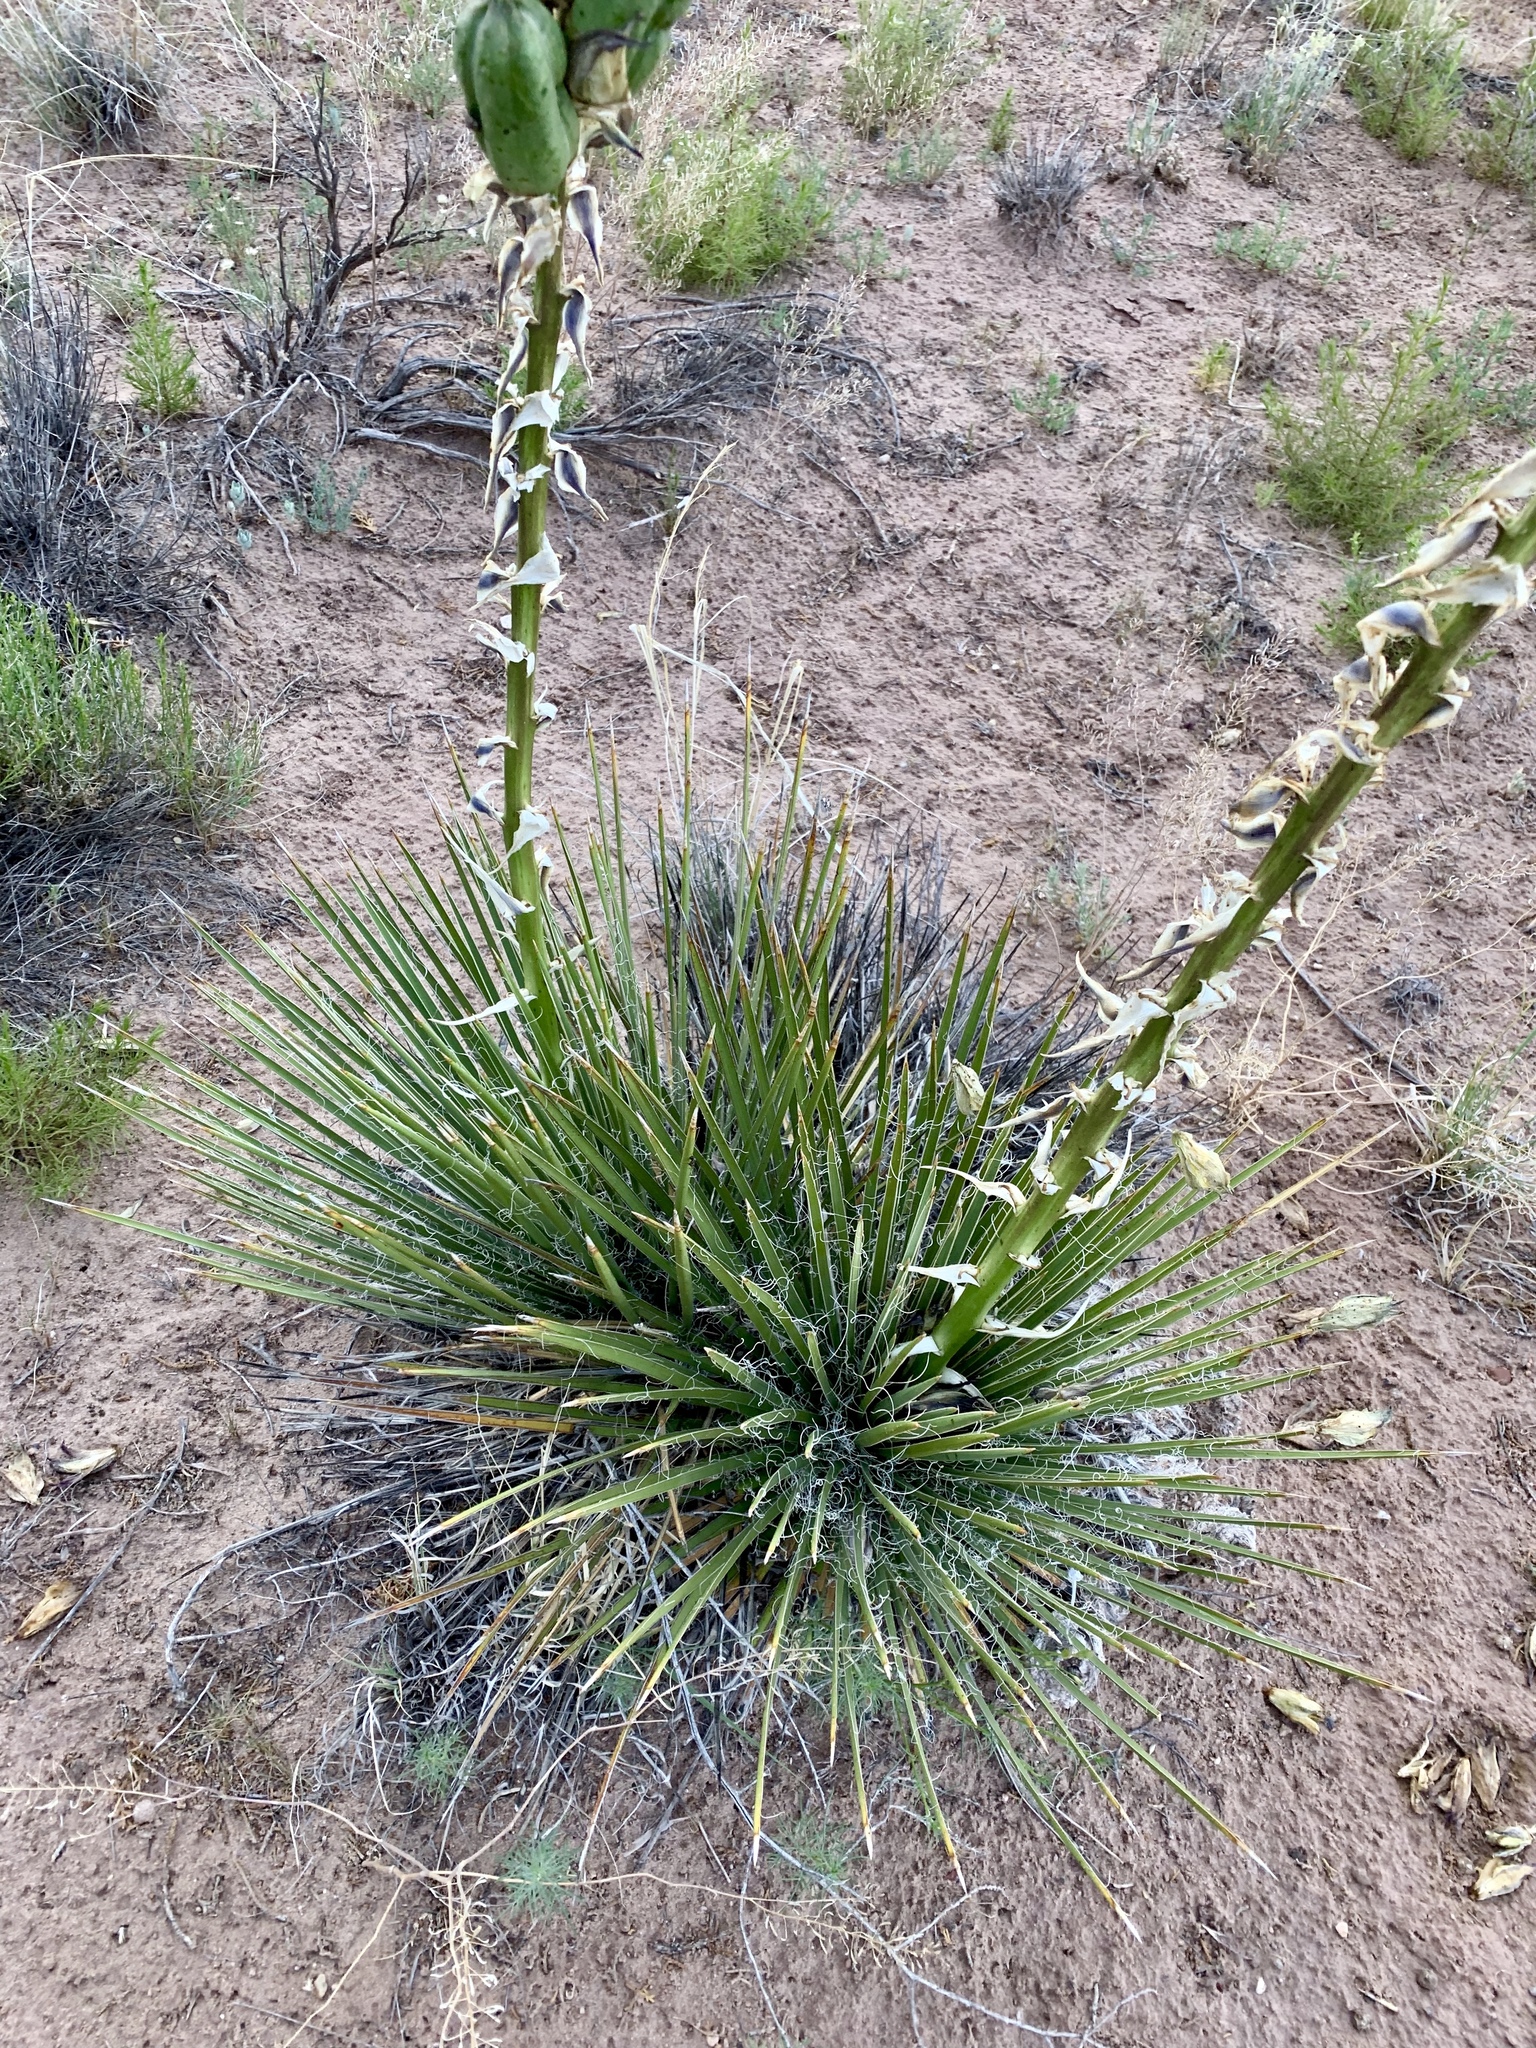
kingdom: Plantae
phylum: Tracheophyta
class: Liliopsida
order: Asparagales
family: Asparagaceae
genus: Yucca
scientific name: Yucca baileyi
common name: Alpine yucca
